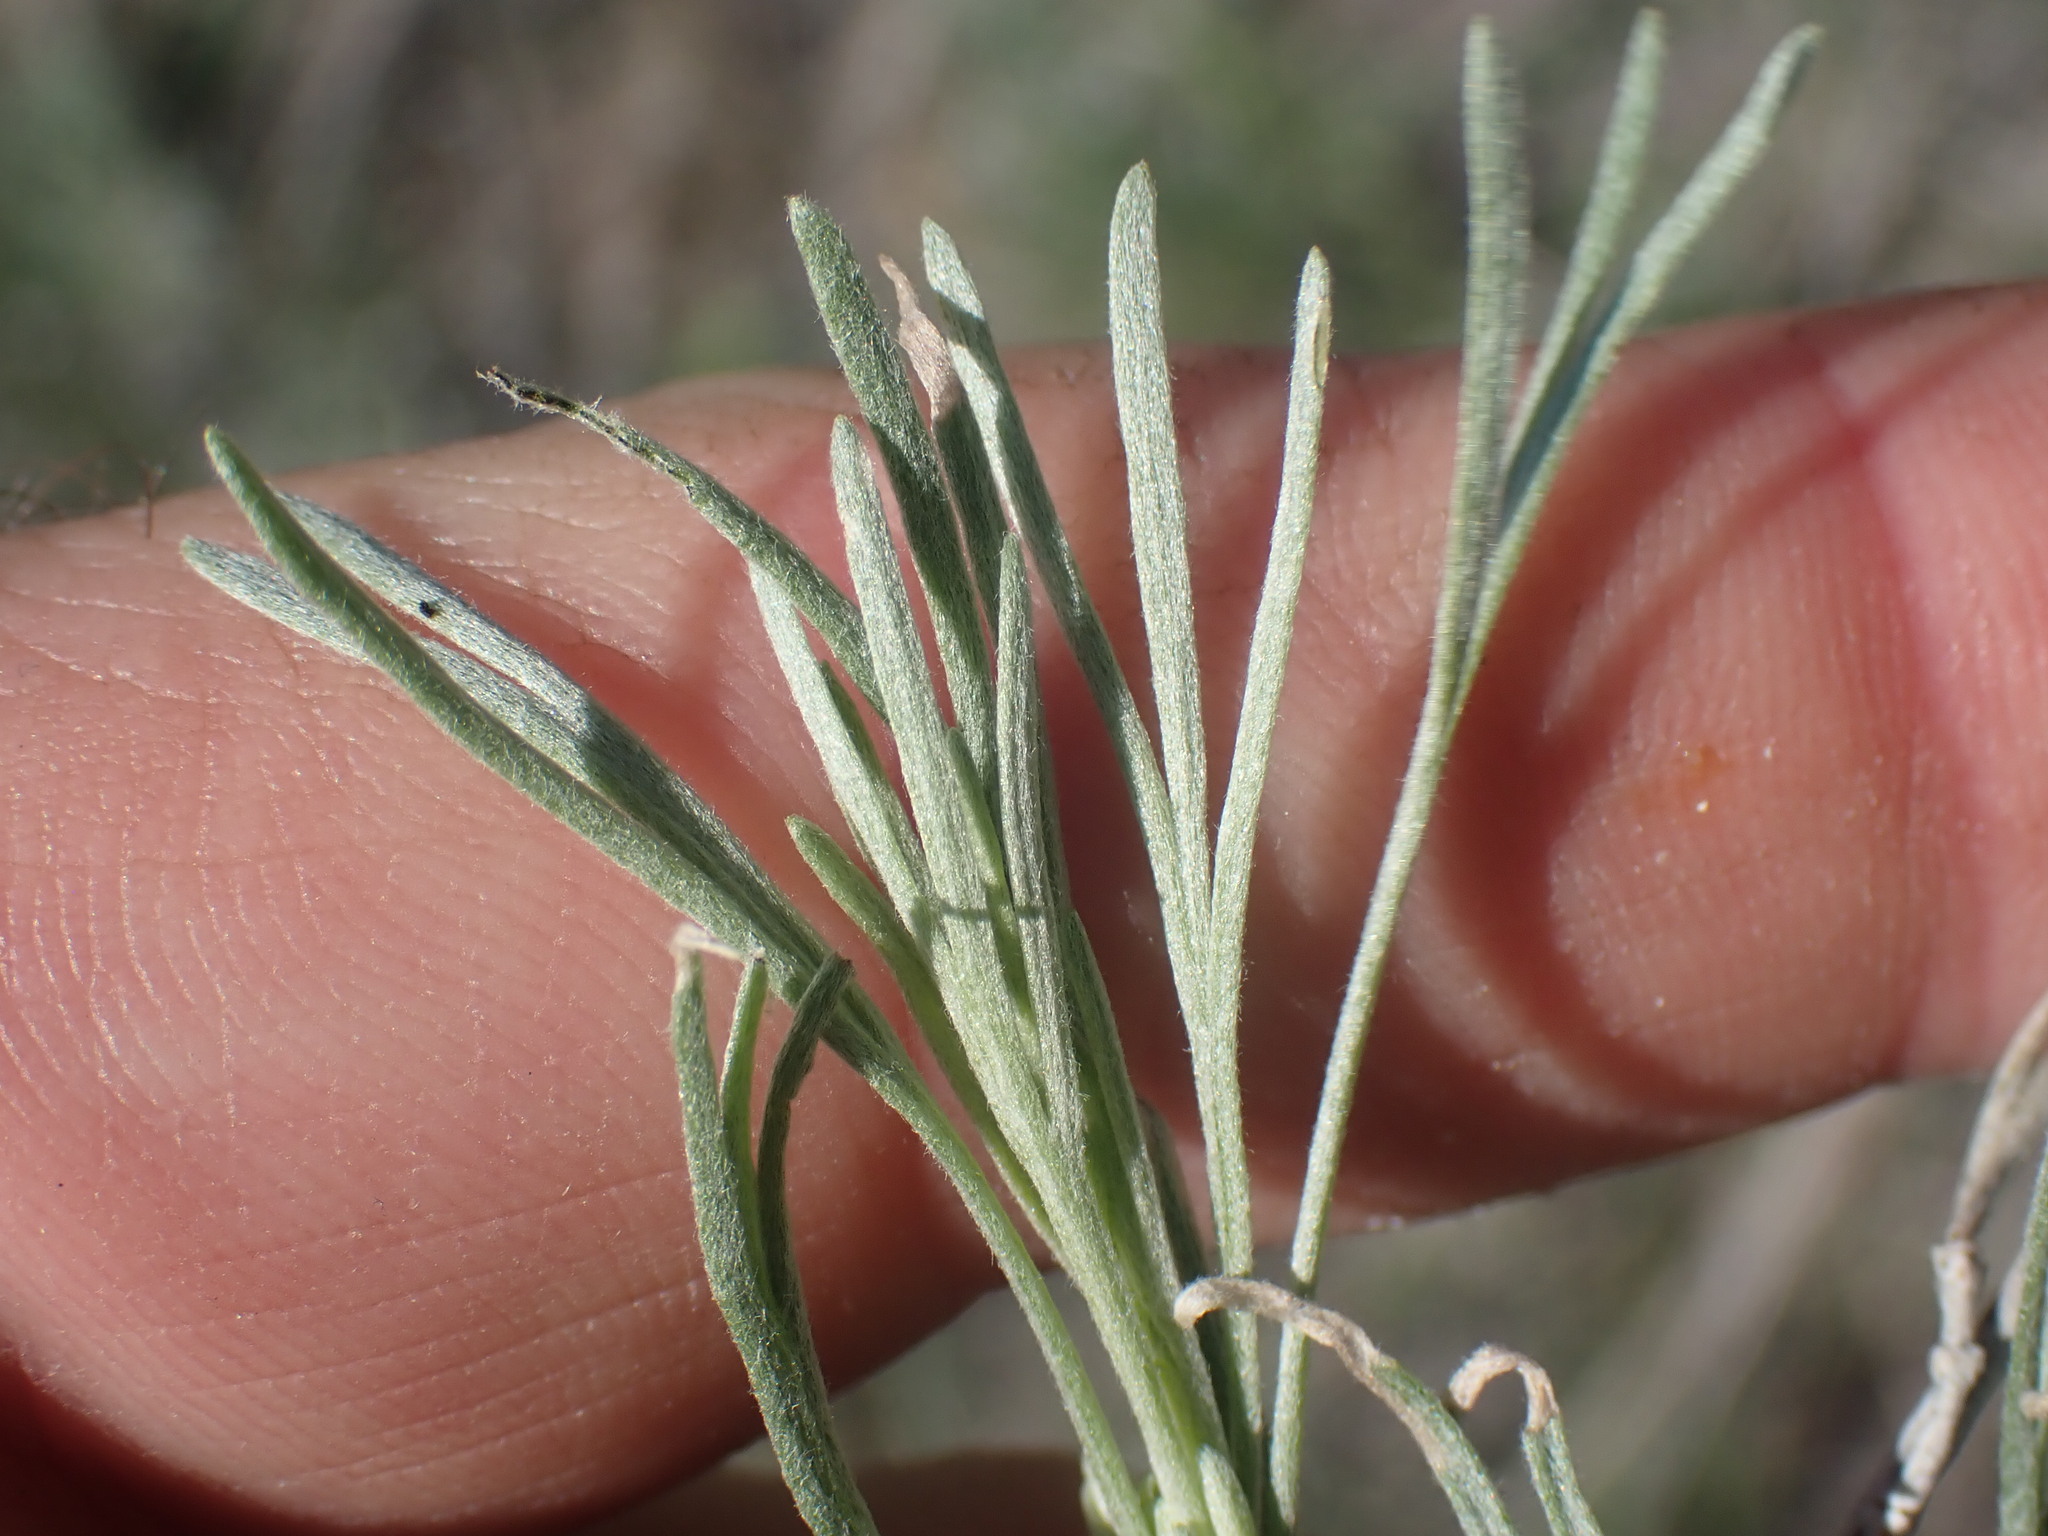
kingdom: Plantae
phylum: Tracheophyta
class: Magnoliopsida
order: Asterales
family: Asteraceae
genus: Ericameria
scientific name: Ericameria nauseosa
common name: Rubber rabbitbrush
